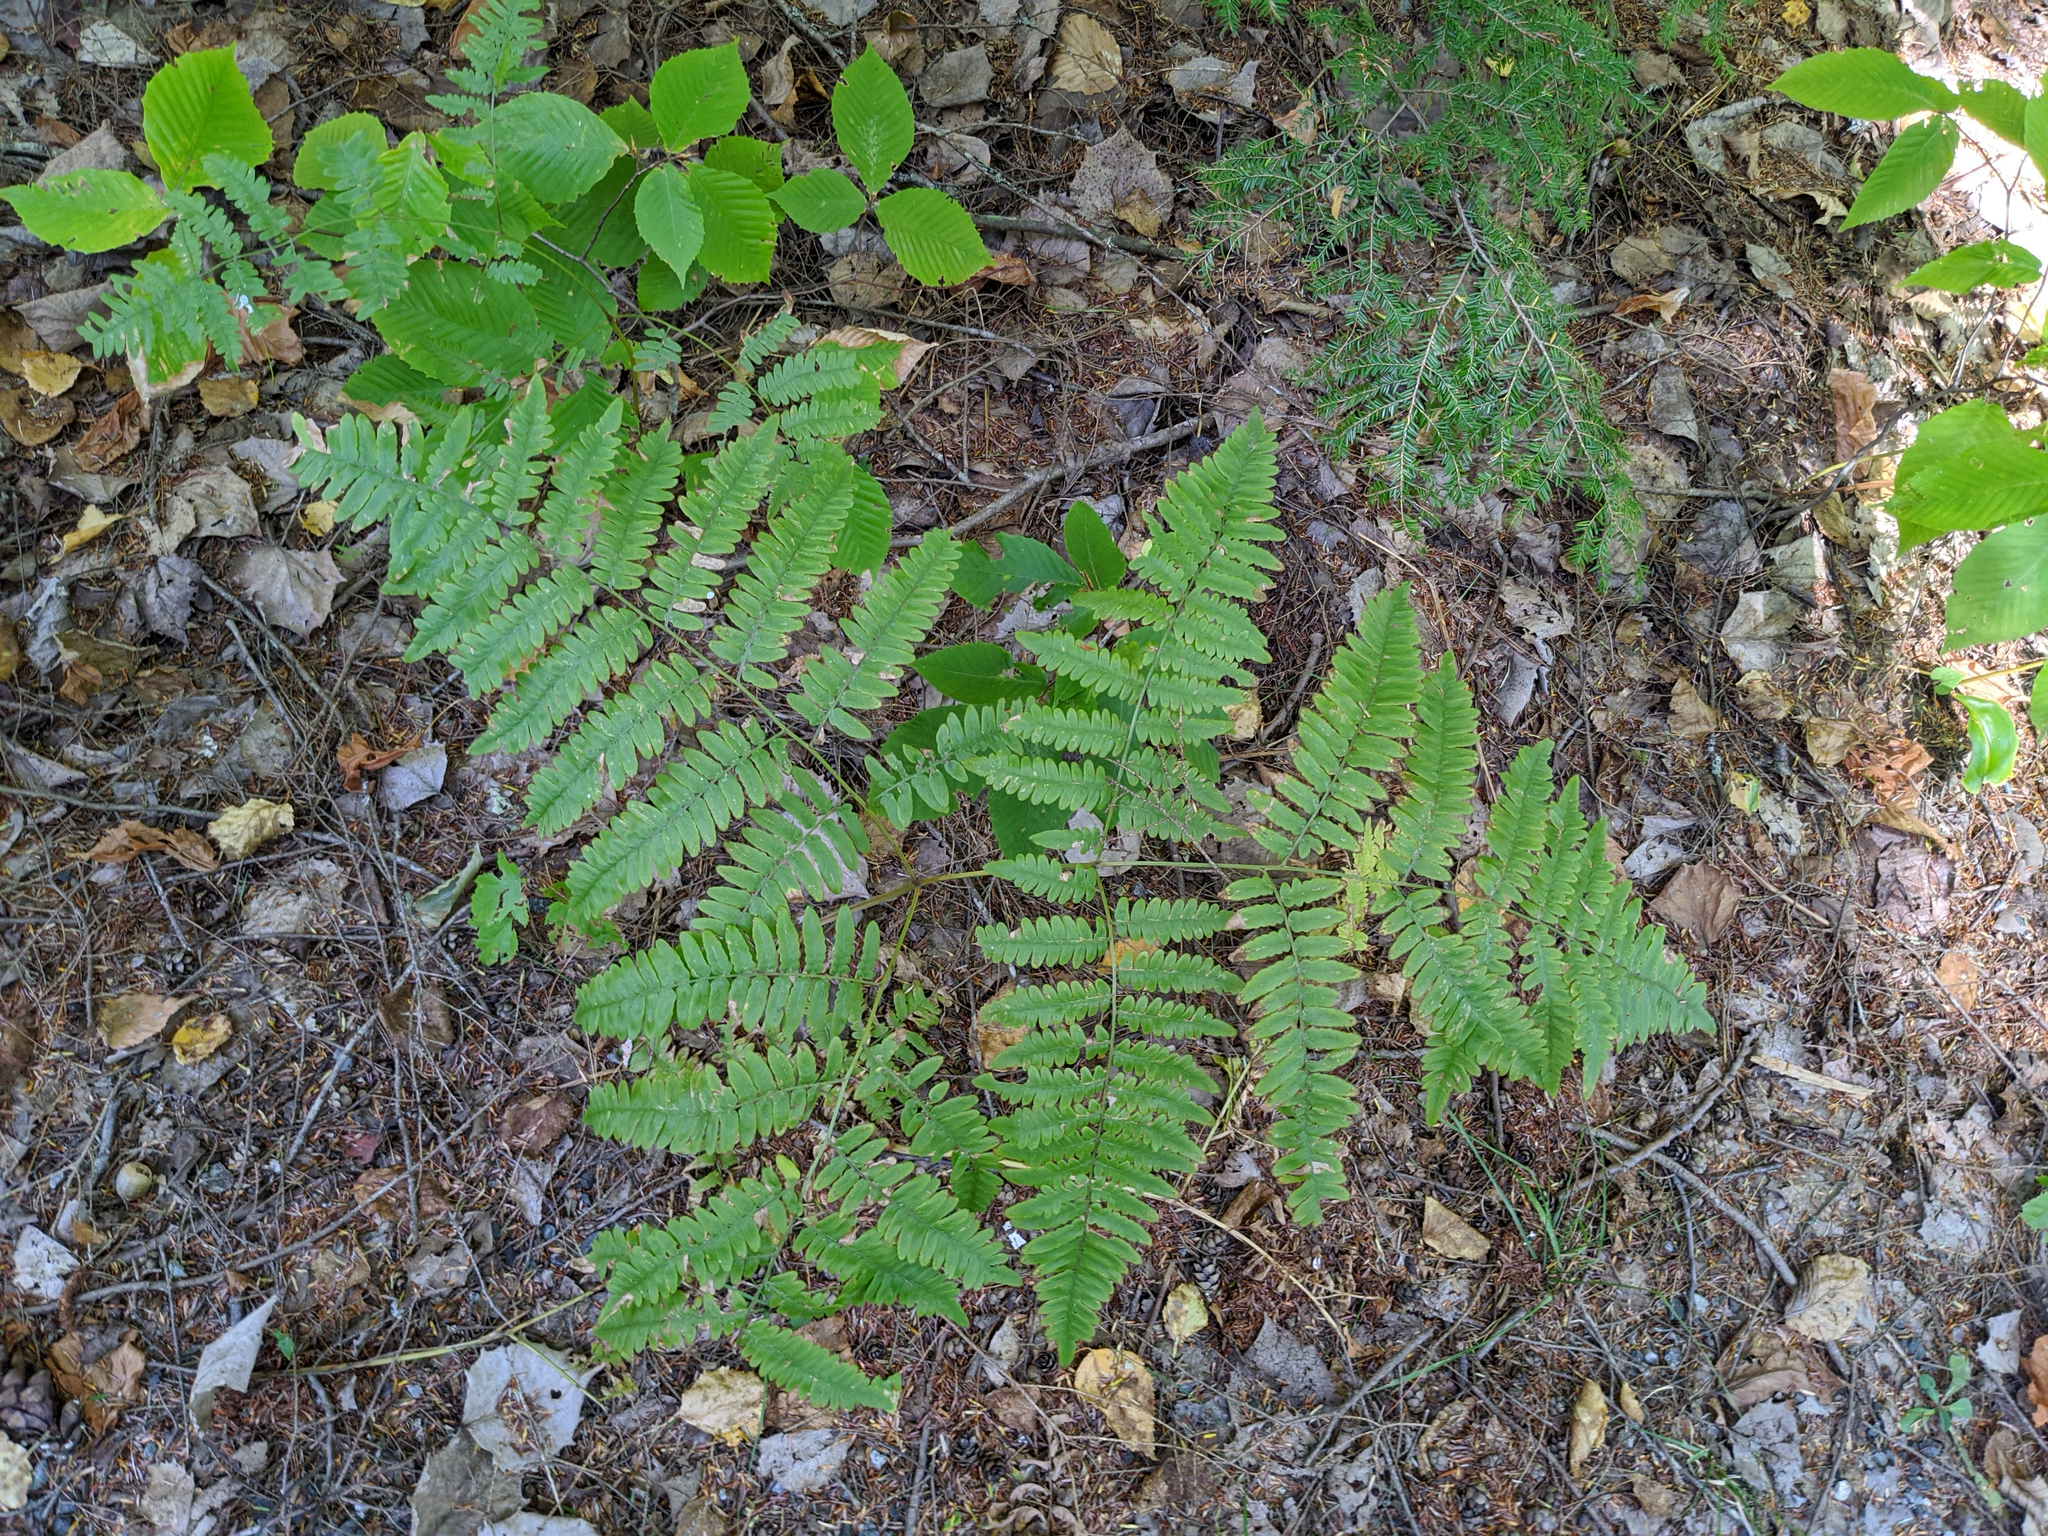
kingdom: Plantae
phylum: Tracheophyta
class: Polypodiopsida
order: Polypodiales
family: Dennstaedtiaceae
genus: Pteridium
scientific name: Pteridium aquilinum
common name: Bracken
